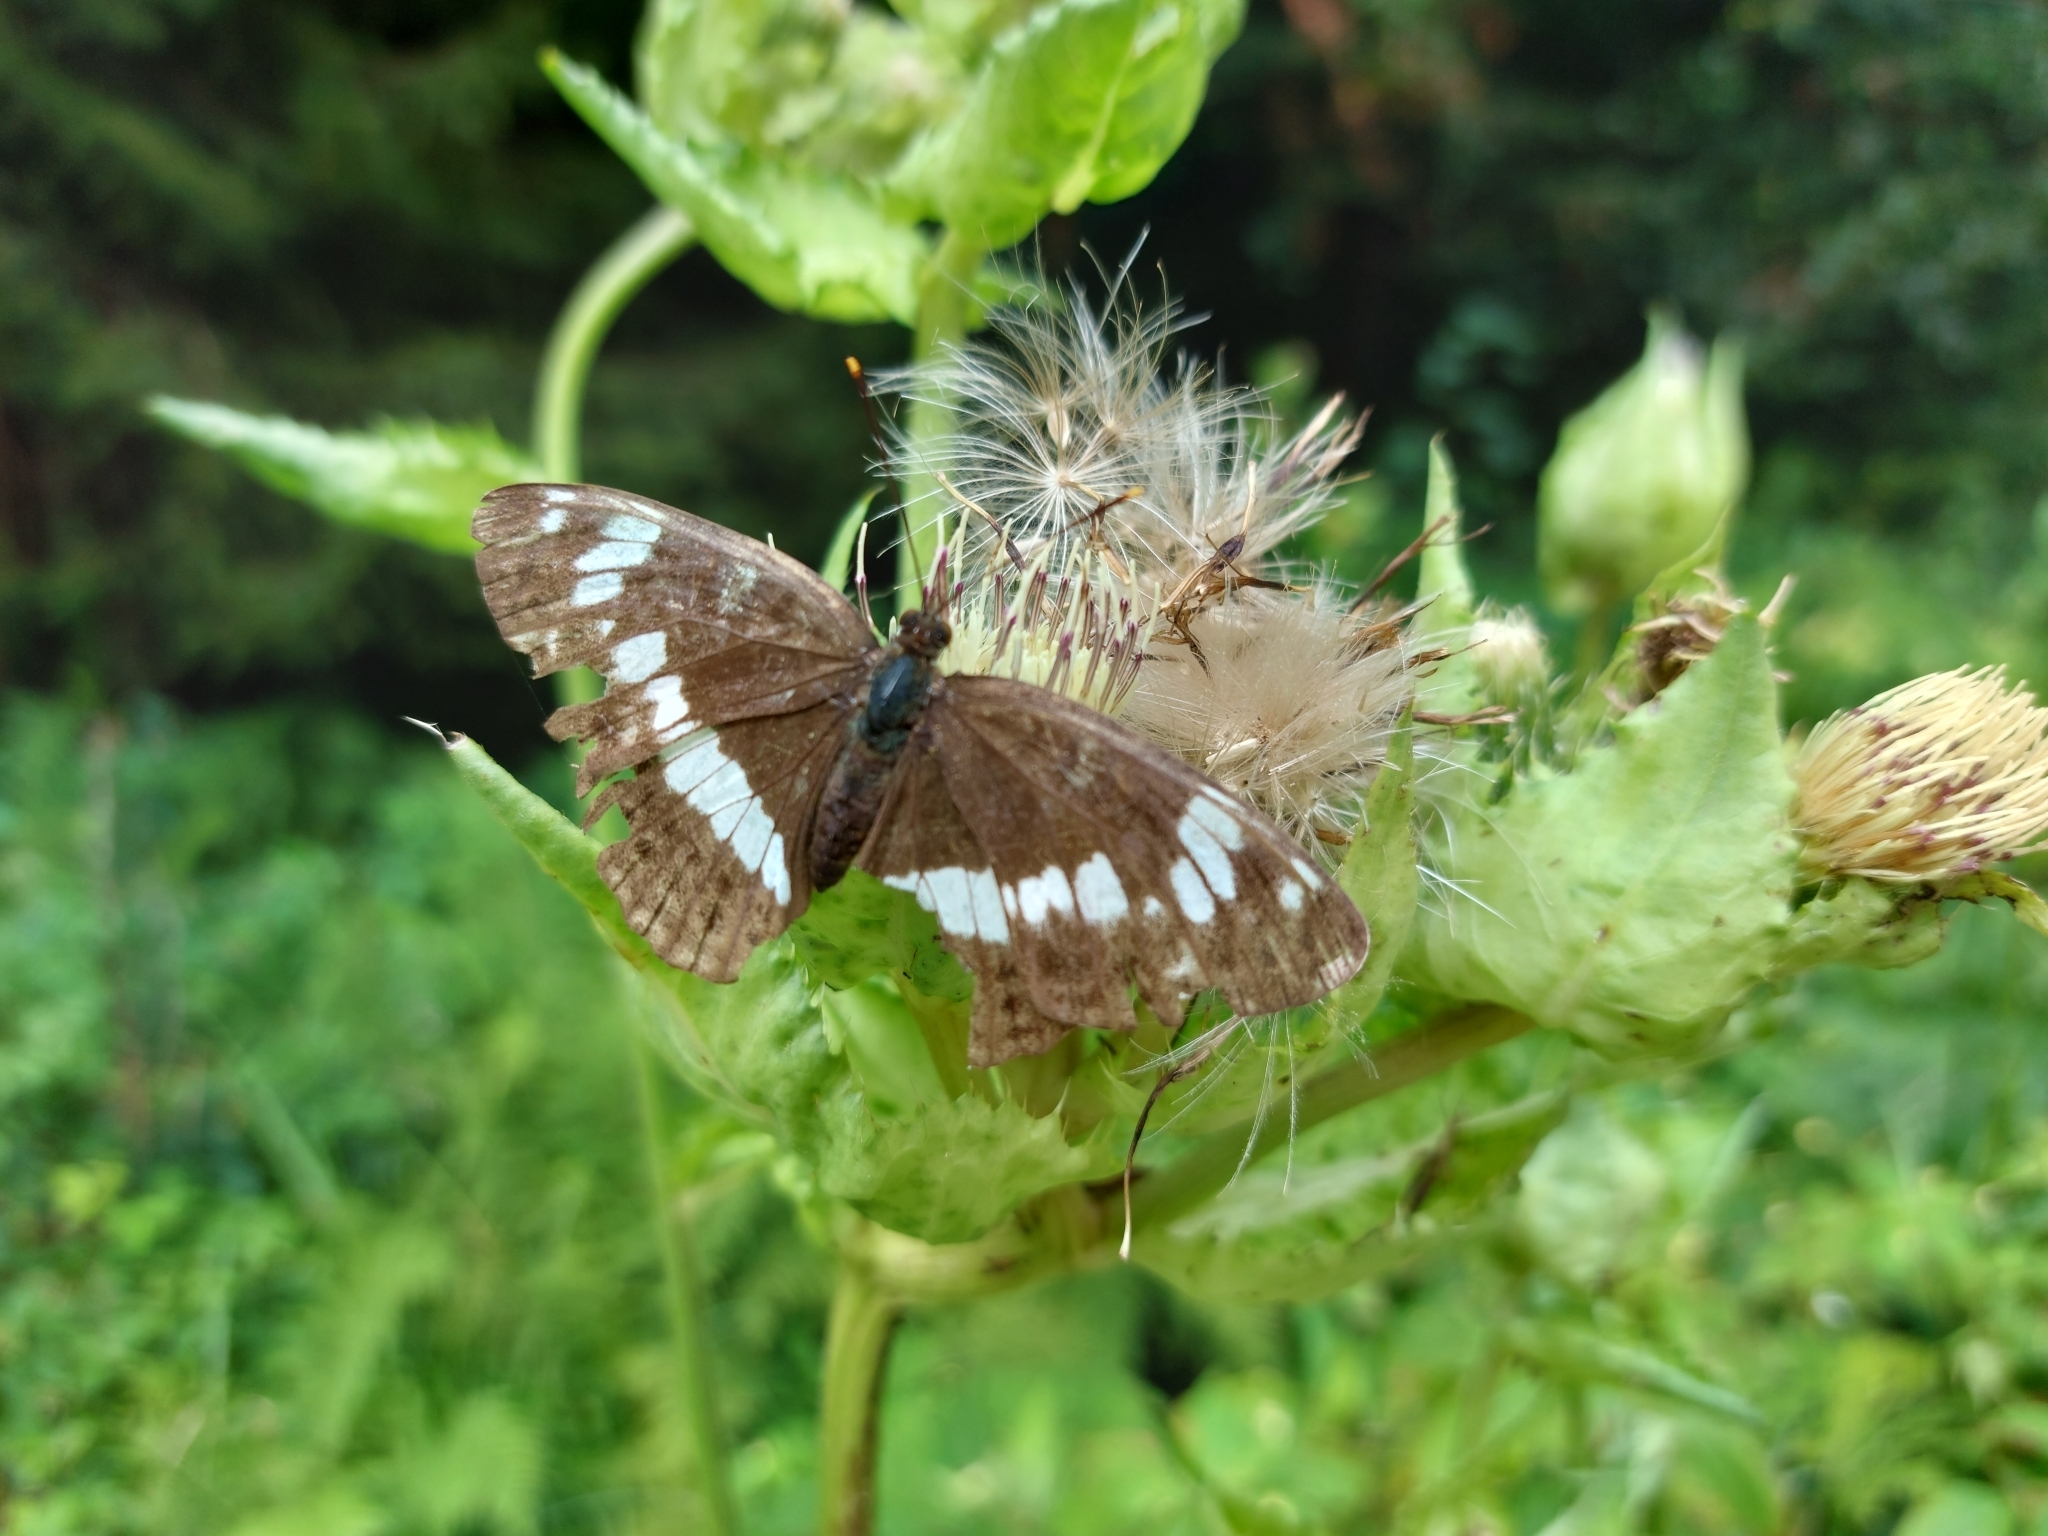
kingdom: Animalia
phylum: Arthropoda
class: Insecta
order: Lepidoptera
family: Nymphalidae
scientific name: Nymphalidae
